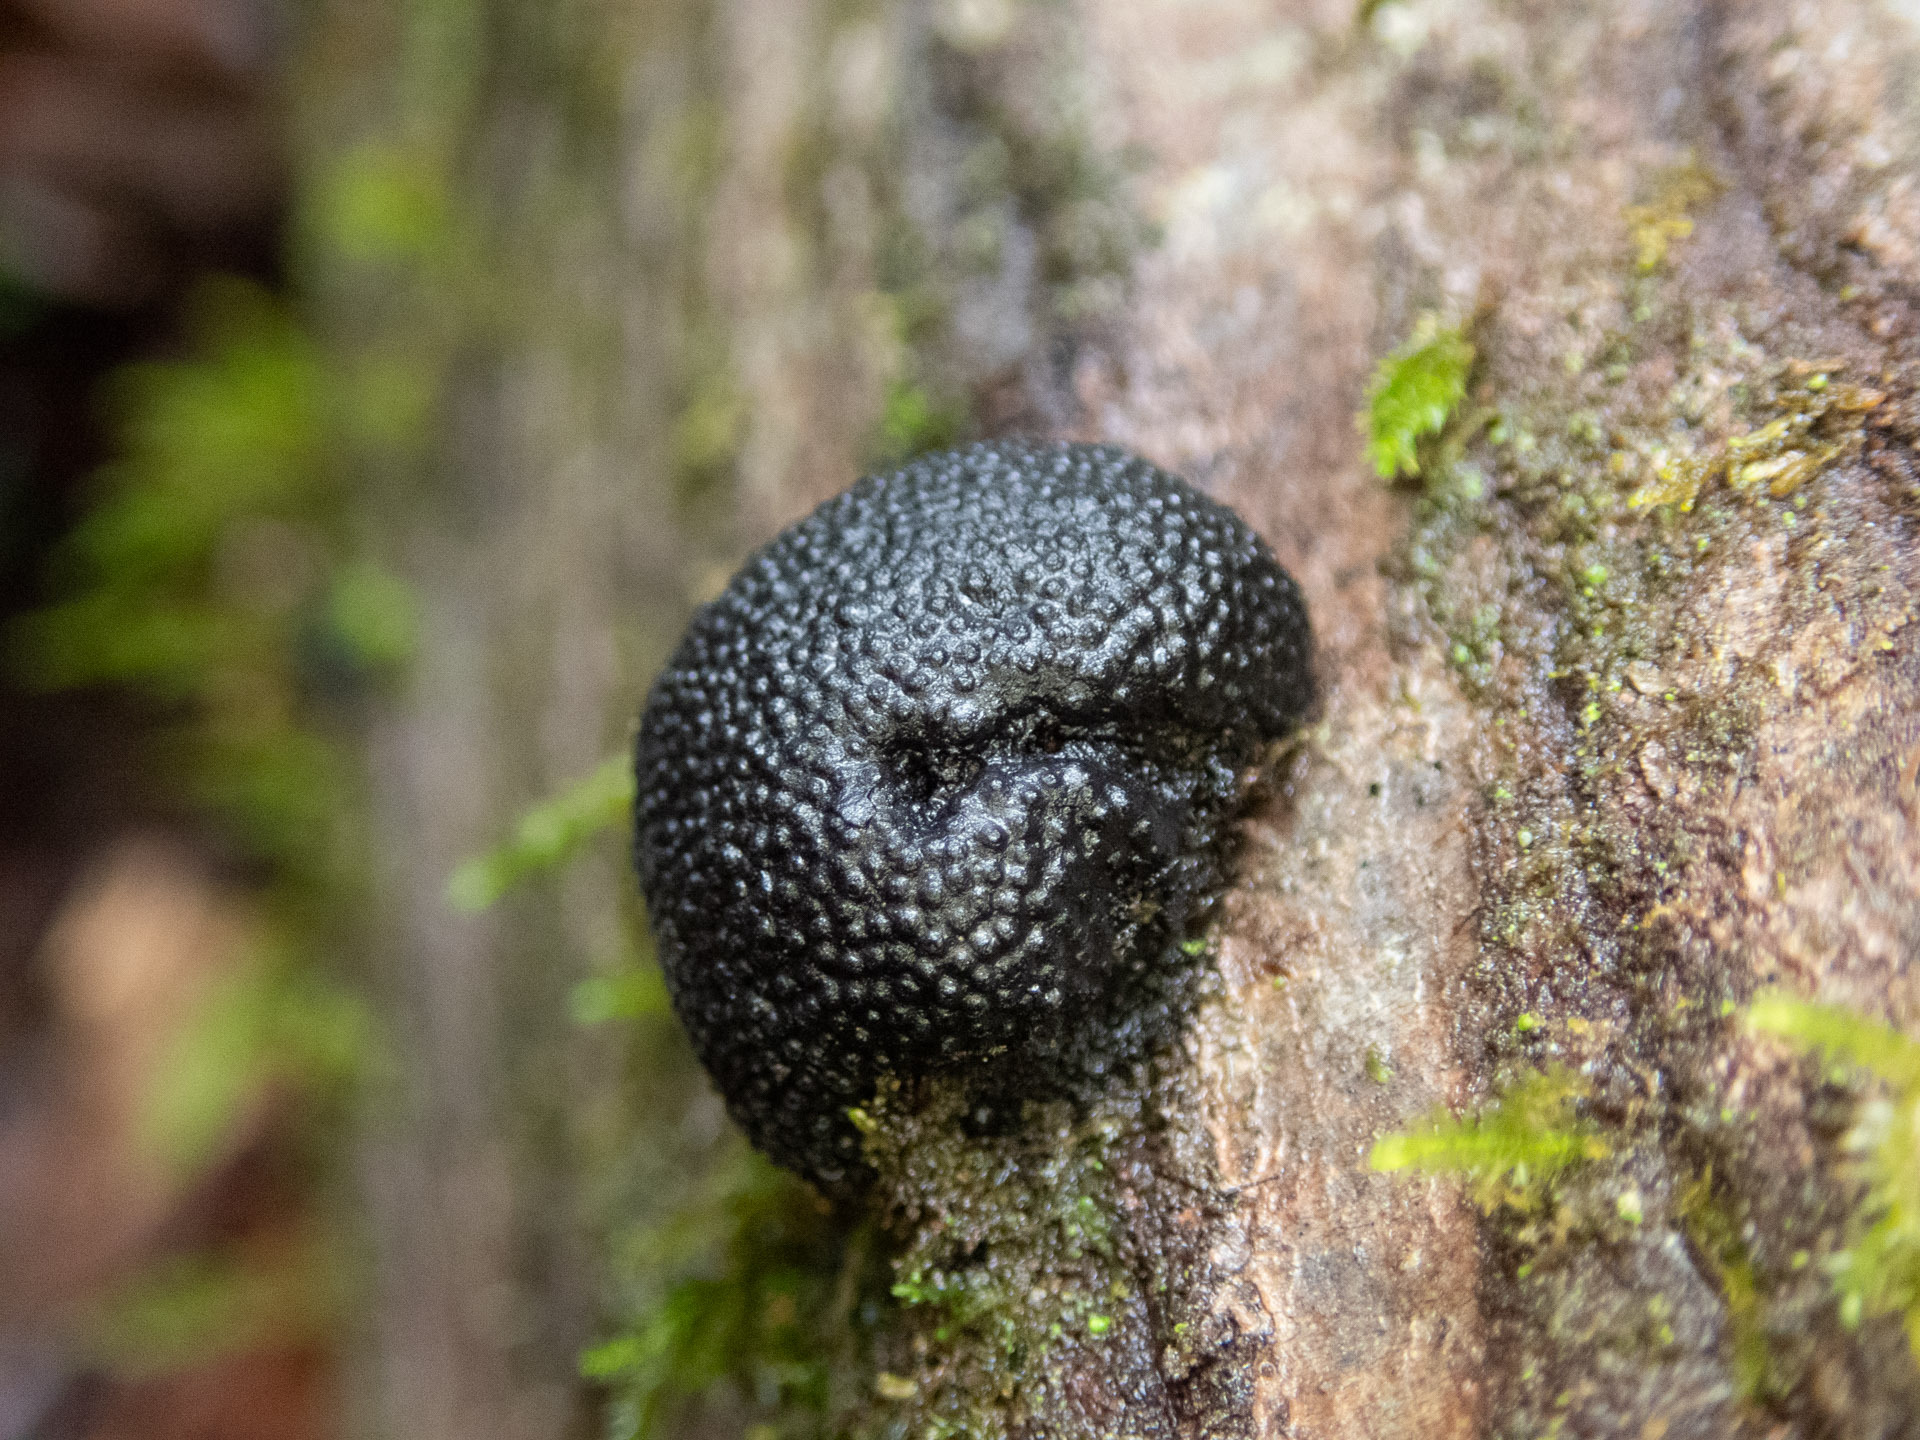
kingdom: Fungi
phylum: Ascomycota
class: Sordariomycetes
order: Xylariales
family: Hypoxylaceae
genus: Annulohypoxylon
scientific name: Annulohypoxylon thouarsianum
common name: Cramp balls
